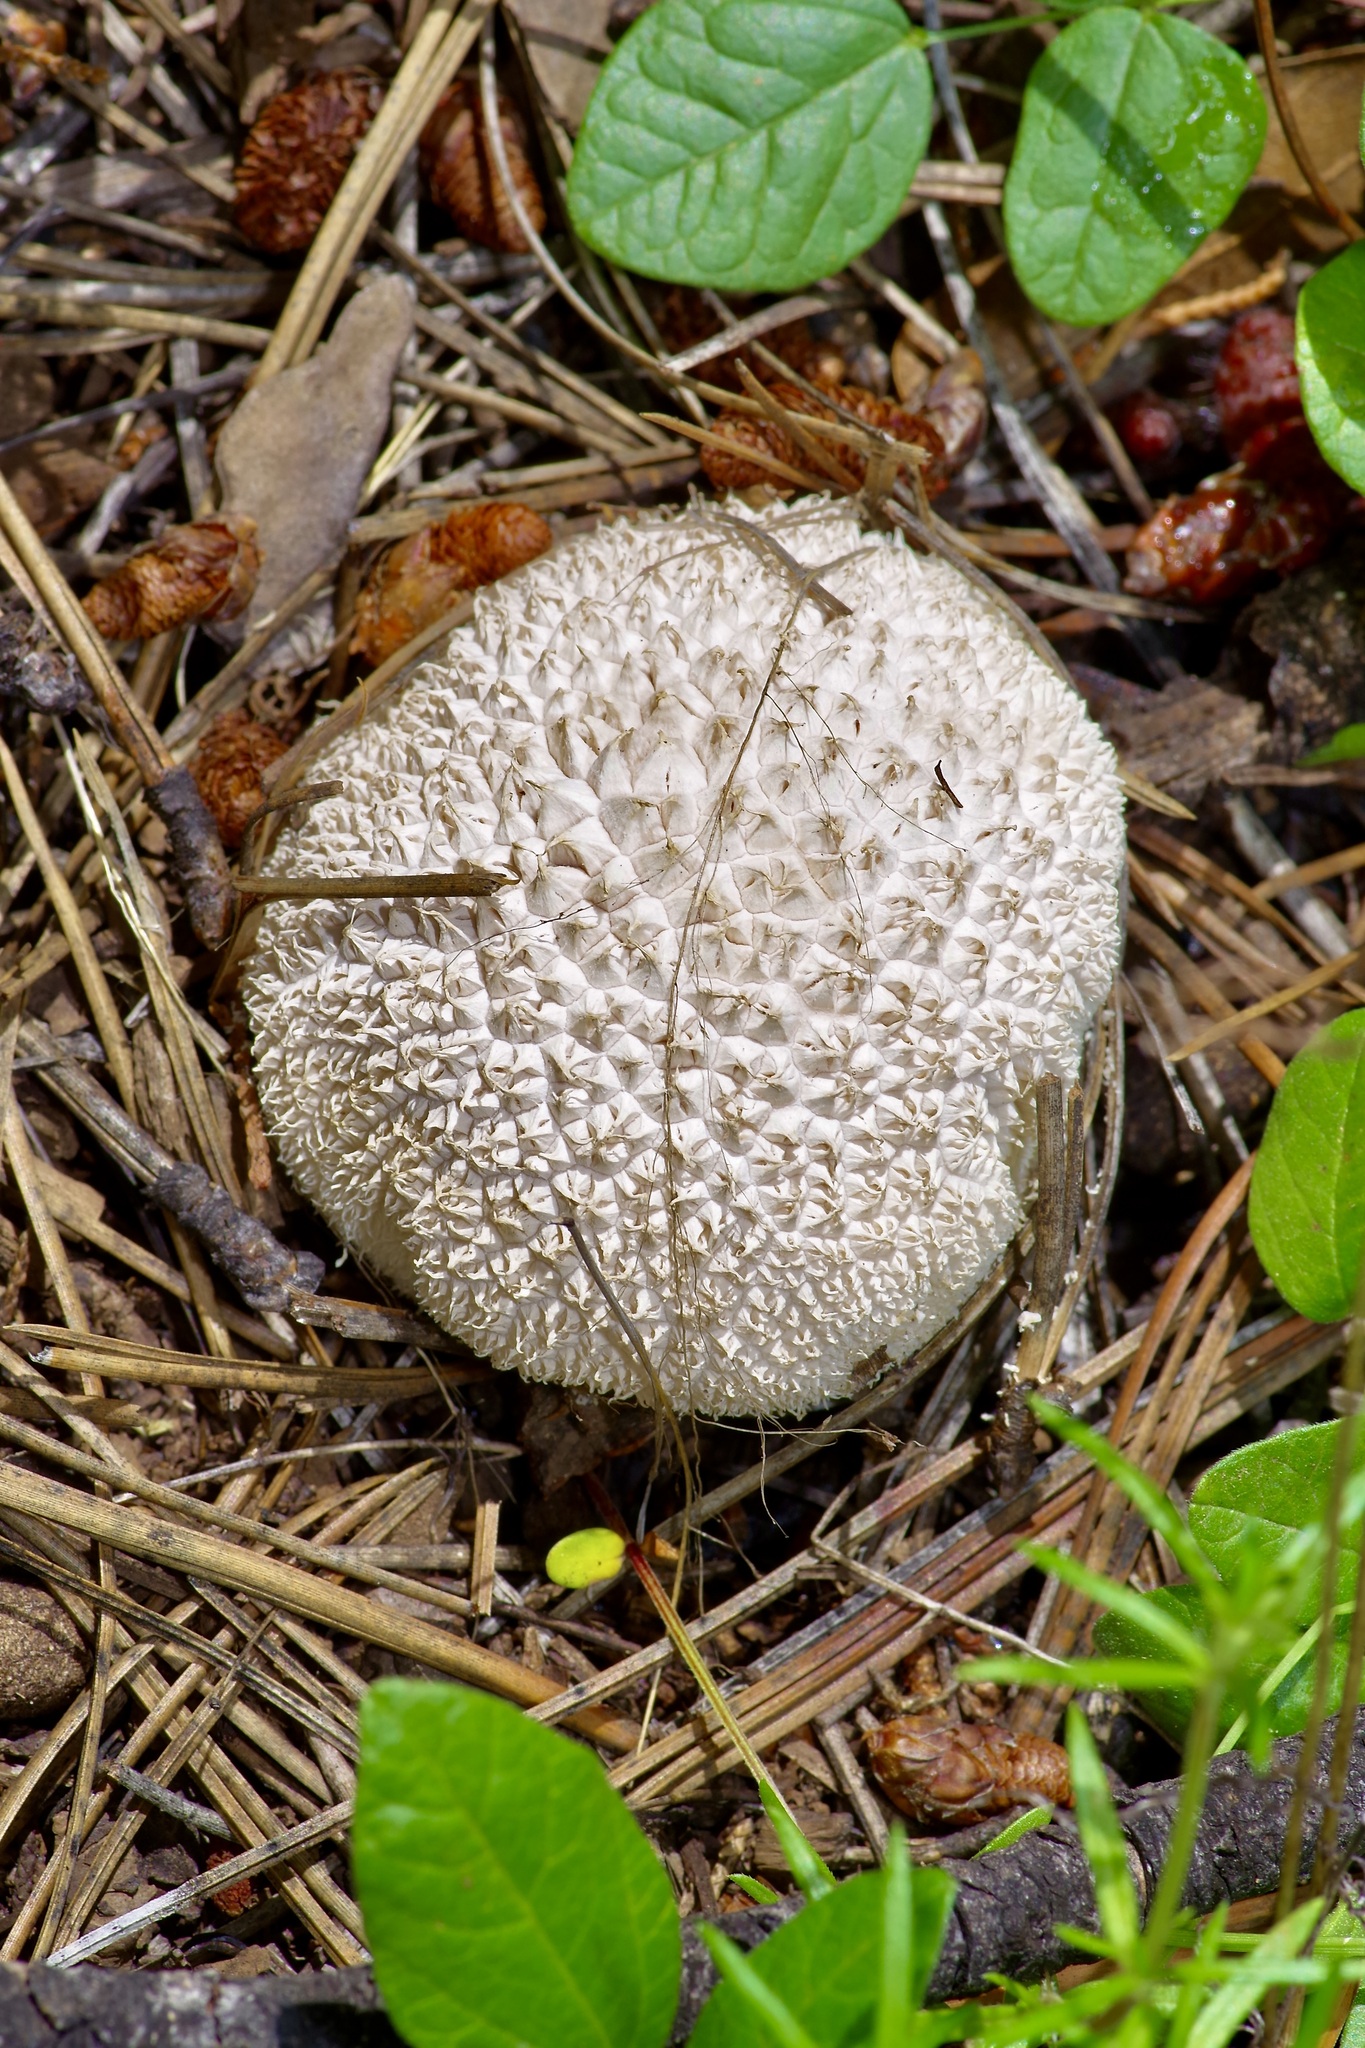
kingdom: Fungi
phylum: Basidiomycota
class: Agaricomycetes
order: Agaricales
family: Agaricaceae
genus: Lycoperdon
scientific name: Lycoperdon marginatum
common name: Peeling puffball
